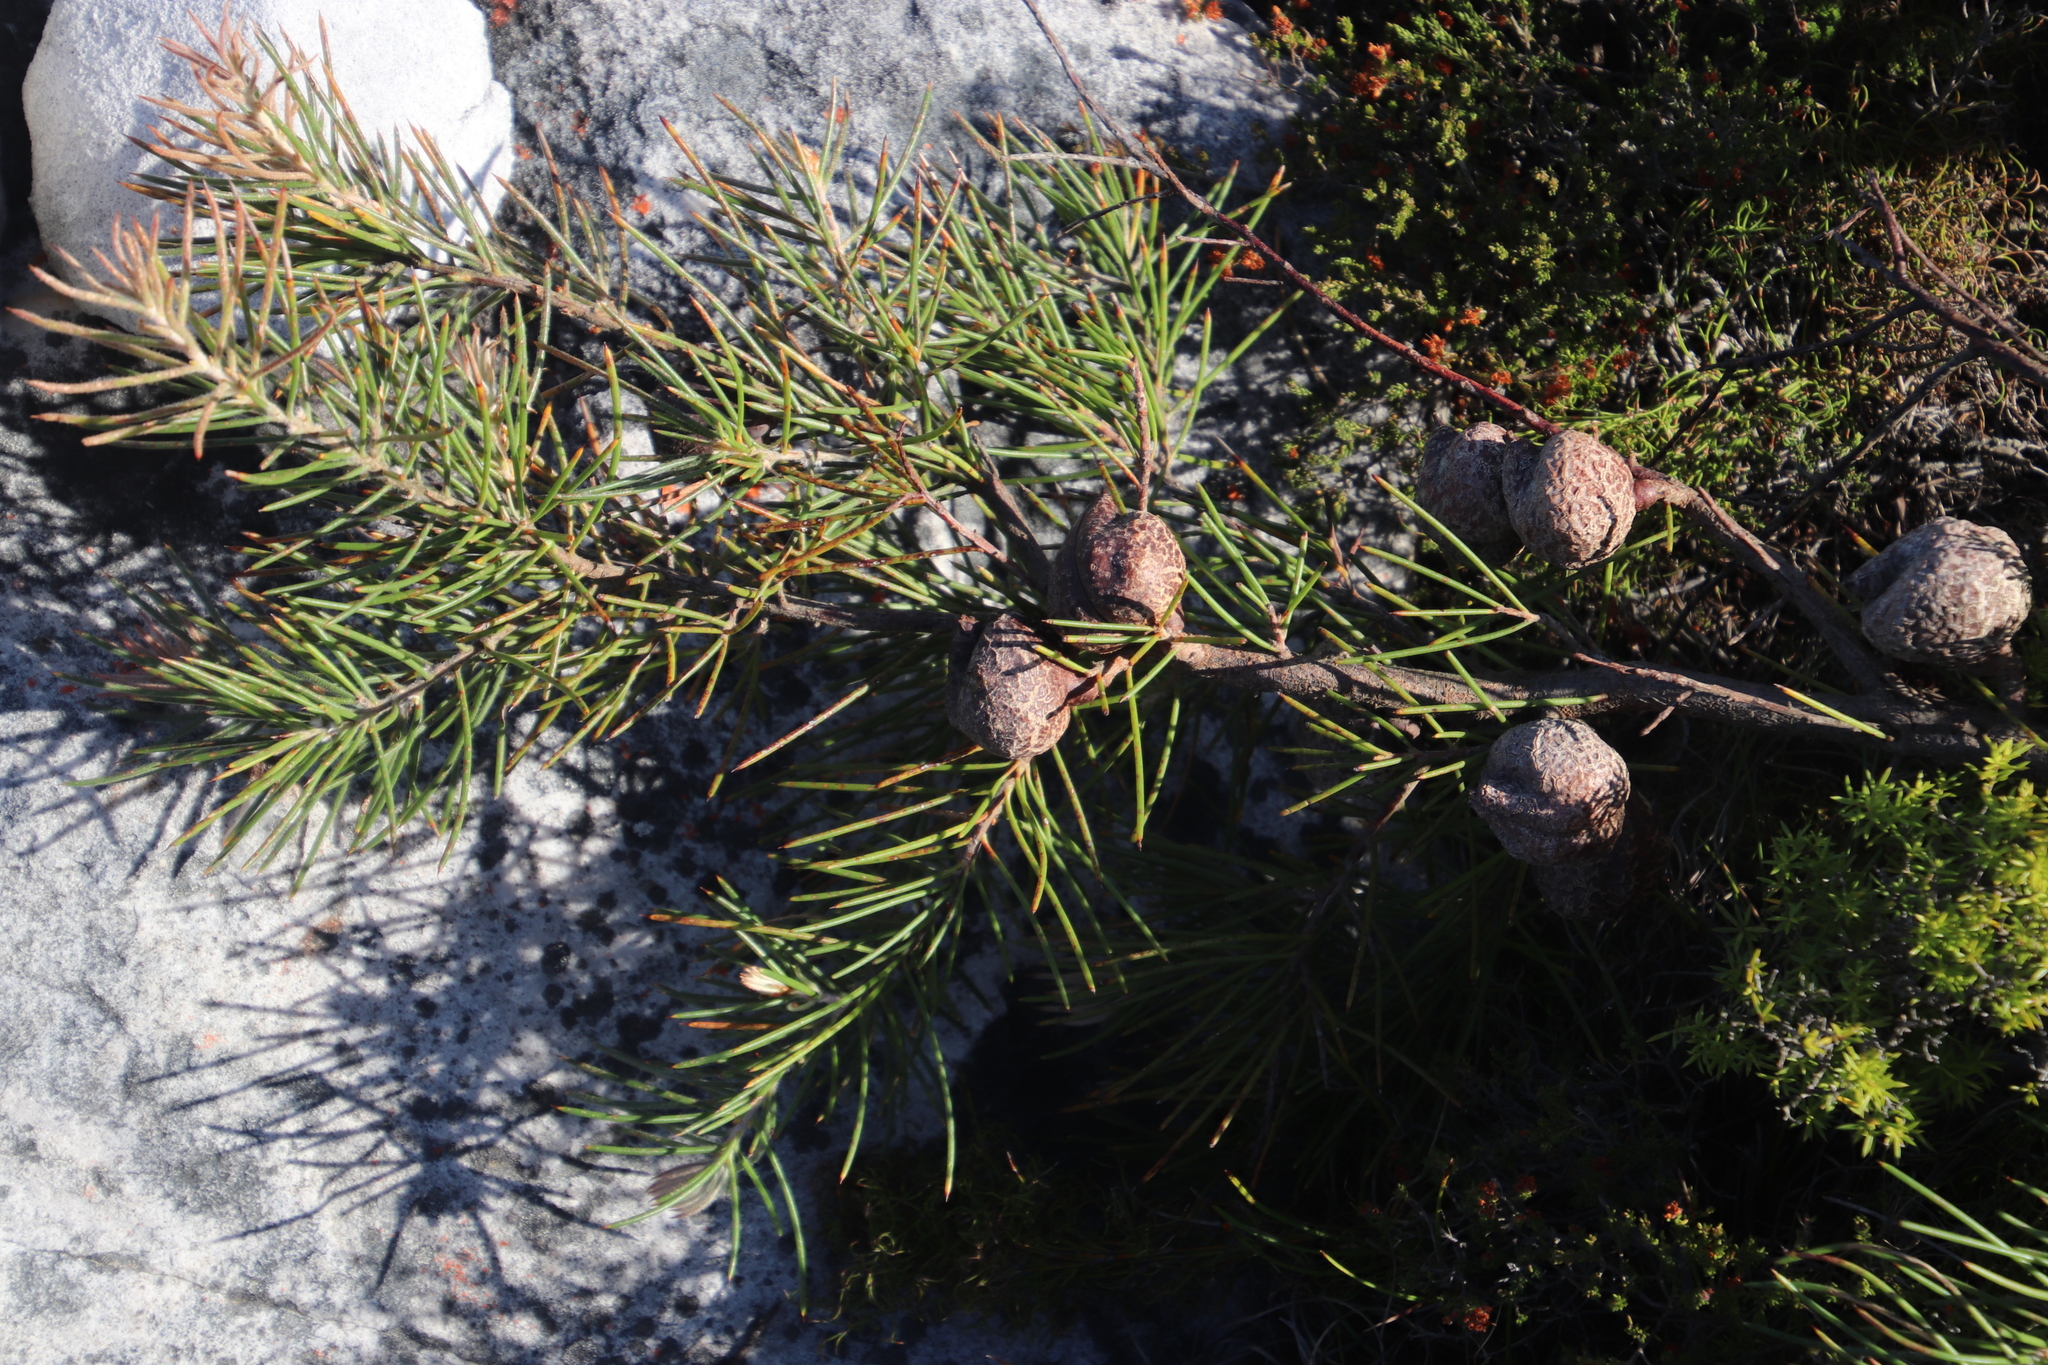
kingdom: Plantae
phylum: Tracheophyta
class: Magnoliopsida
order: Proteales
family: Proteaceae
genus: Hakea
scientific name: Hakea gibbosa
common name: Rock hakea
